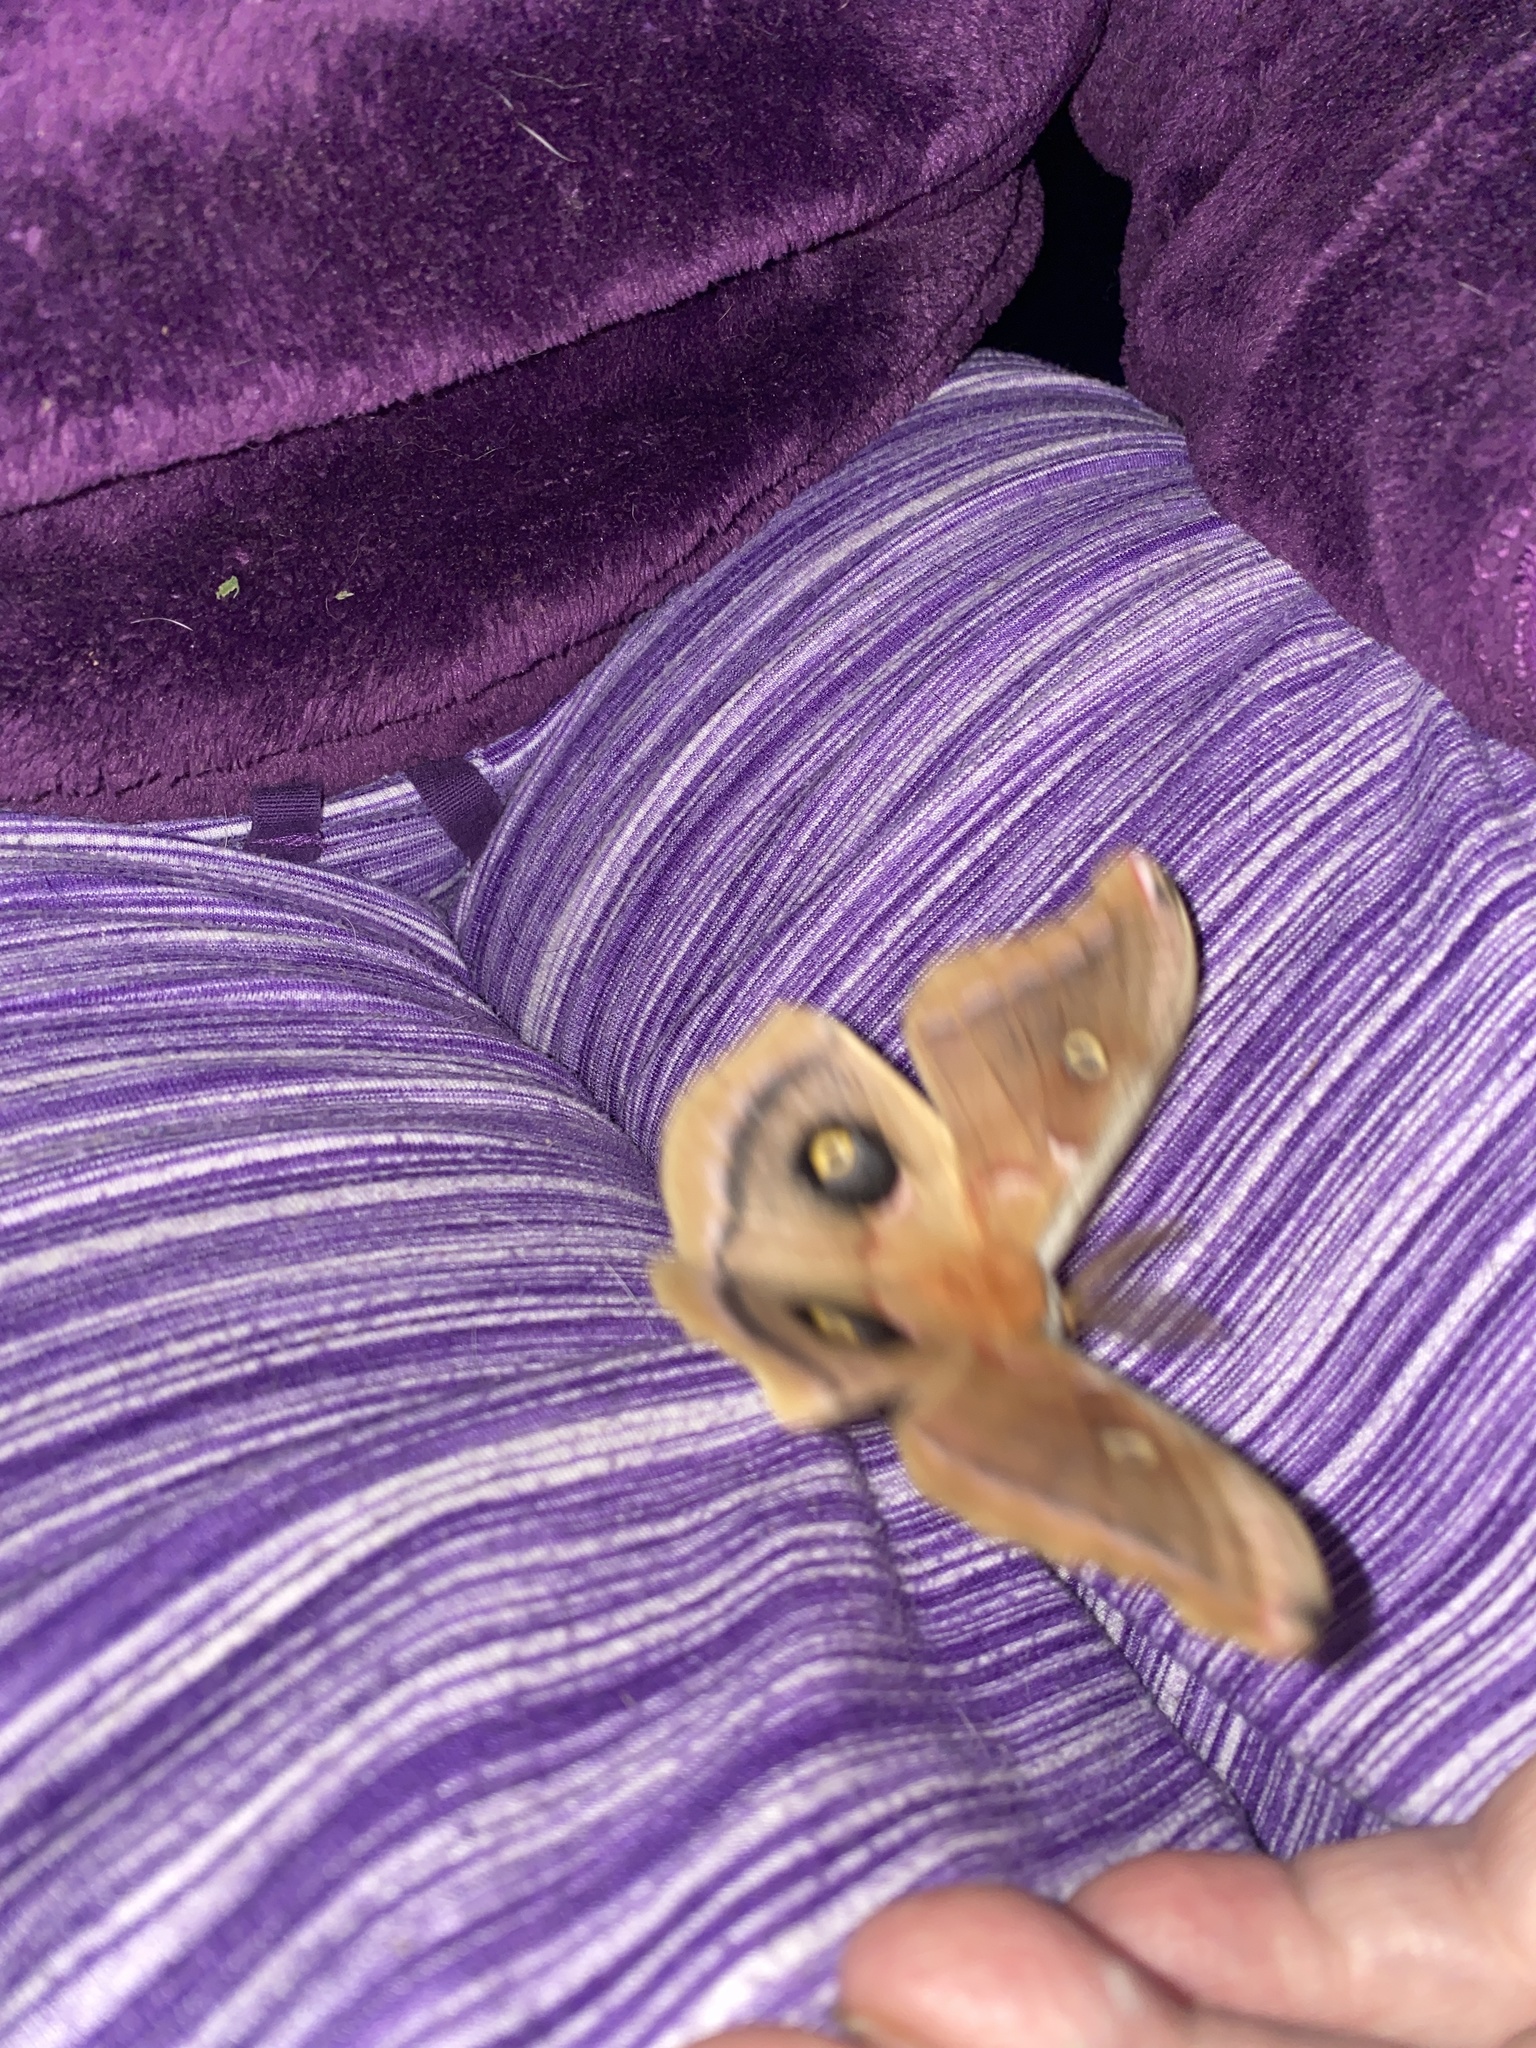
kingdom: Animalia
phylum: Arthropoda
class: Insecta
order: Lepidoptera
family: Saturniidae
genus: Antheraea
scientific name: Antheraea polyphemus
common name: Polyphemus moth
